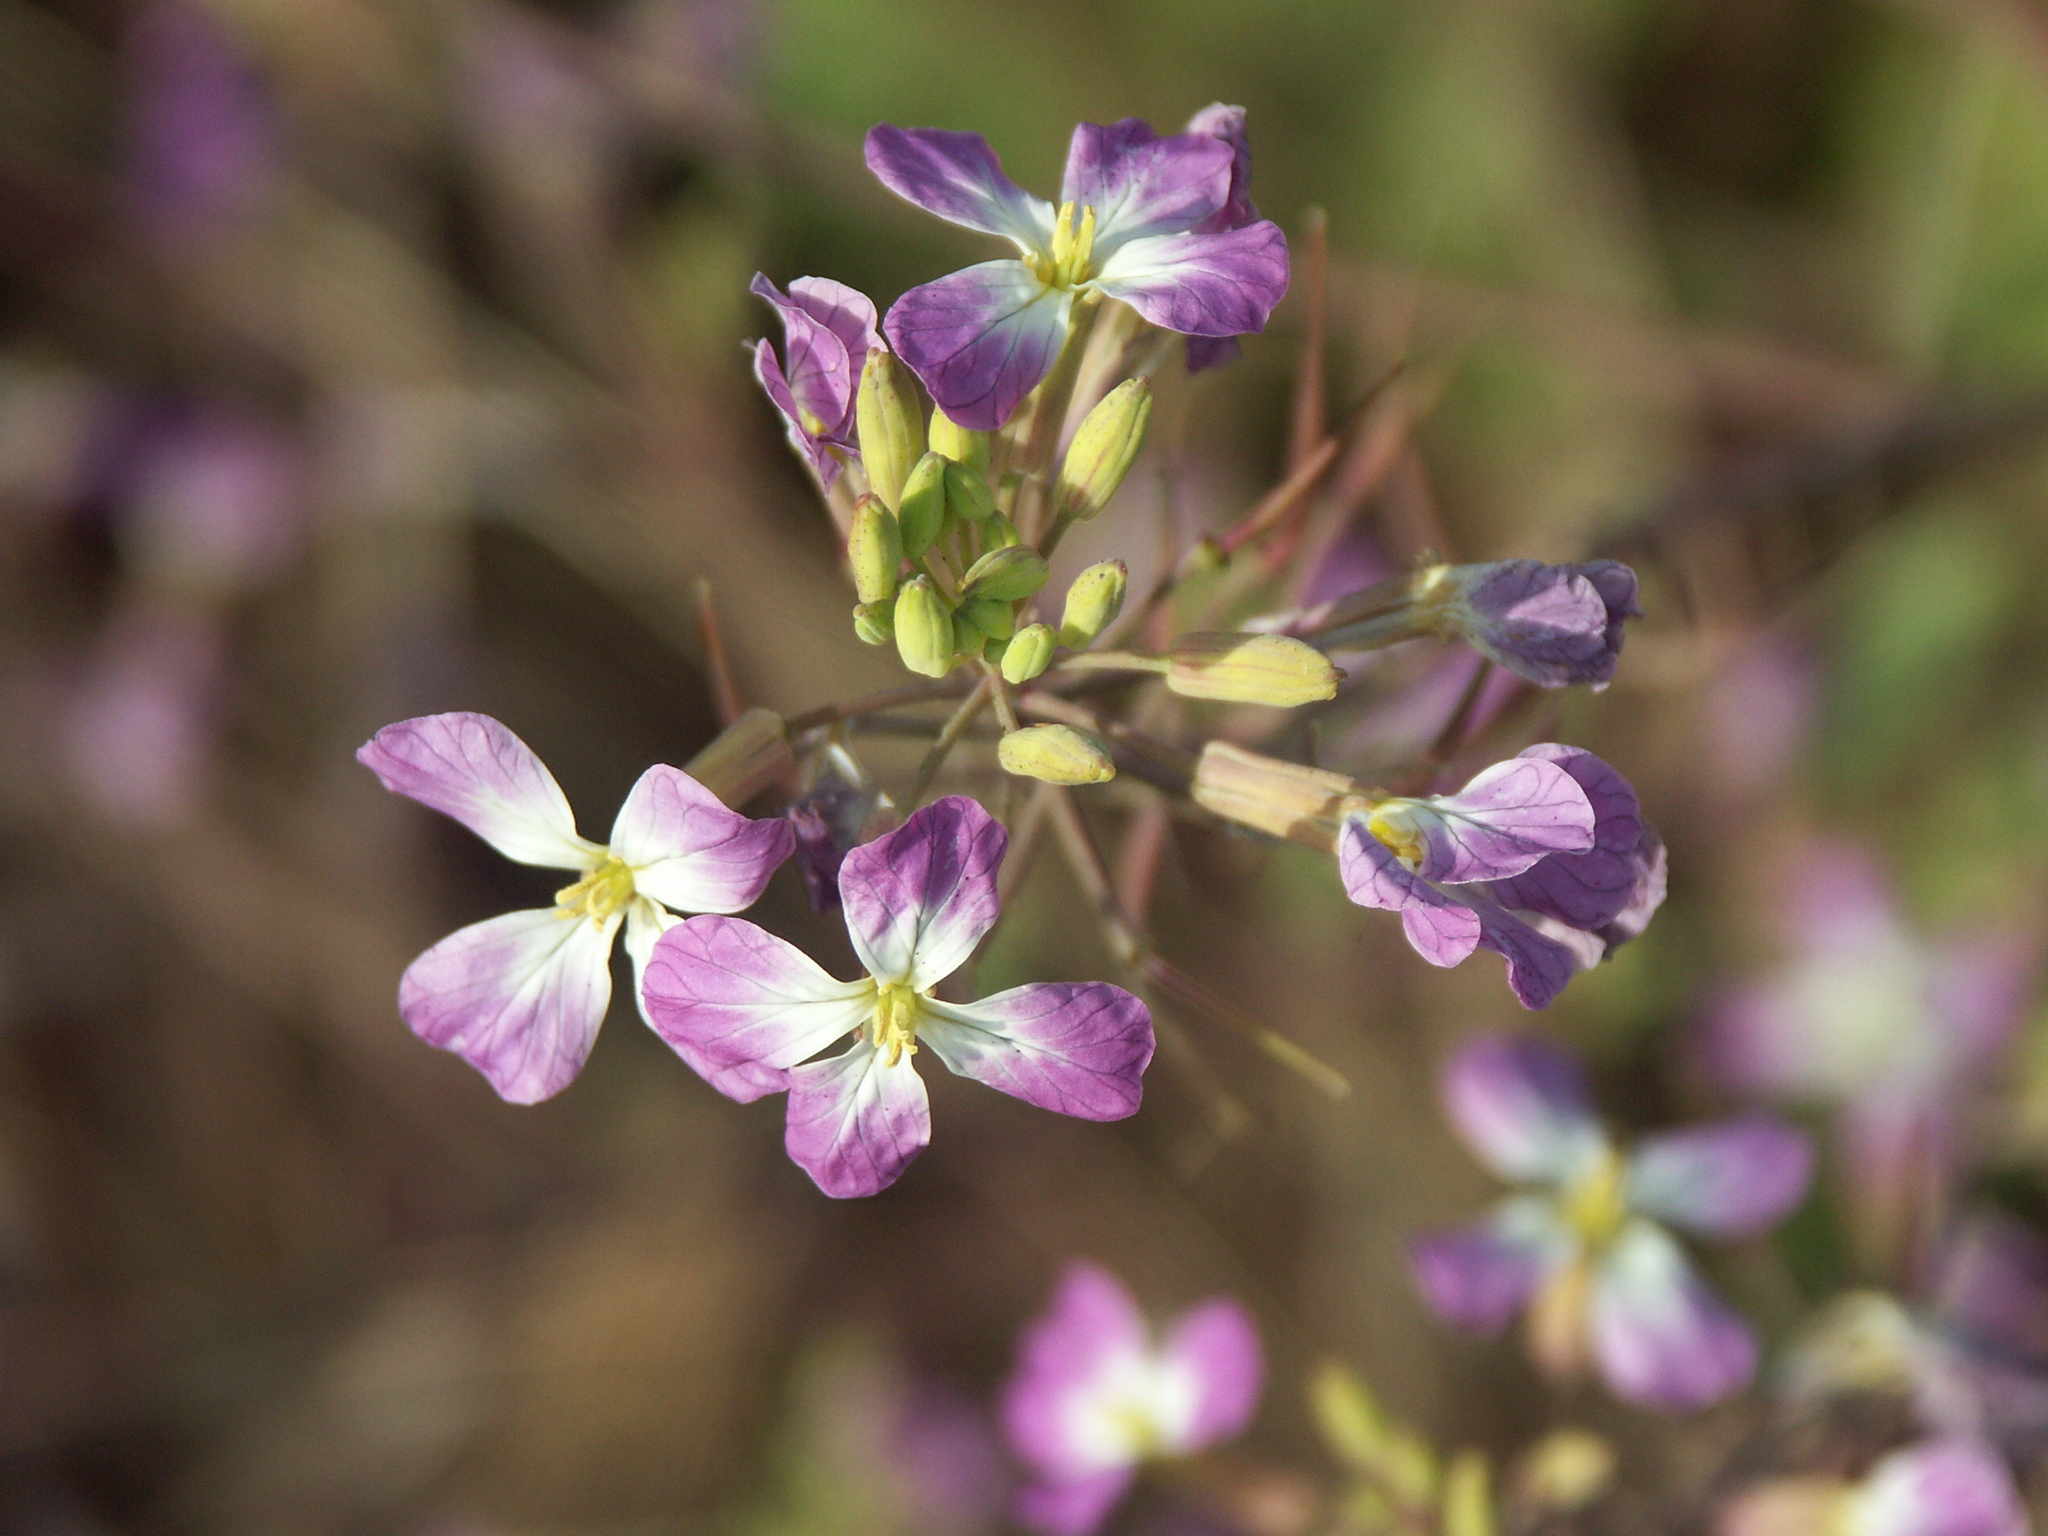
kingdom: Plantae
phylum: Tracheophyta
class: Magnoliopsida
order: Brassicales
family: Brassicaceae
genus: Raphanus
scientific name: Raphanus sativus
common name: Cultivated radish
